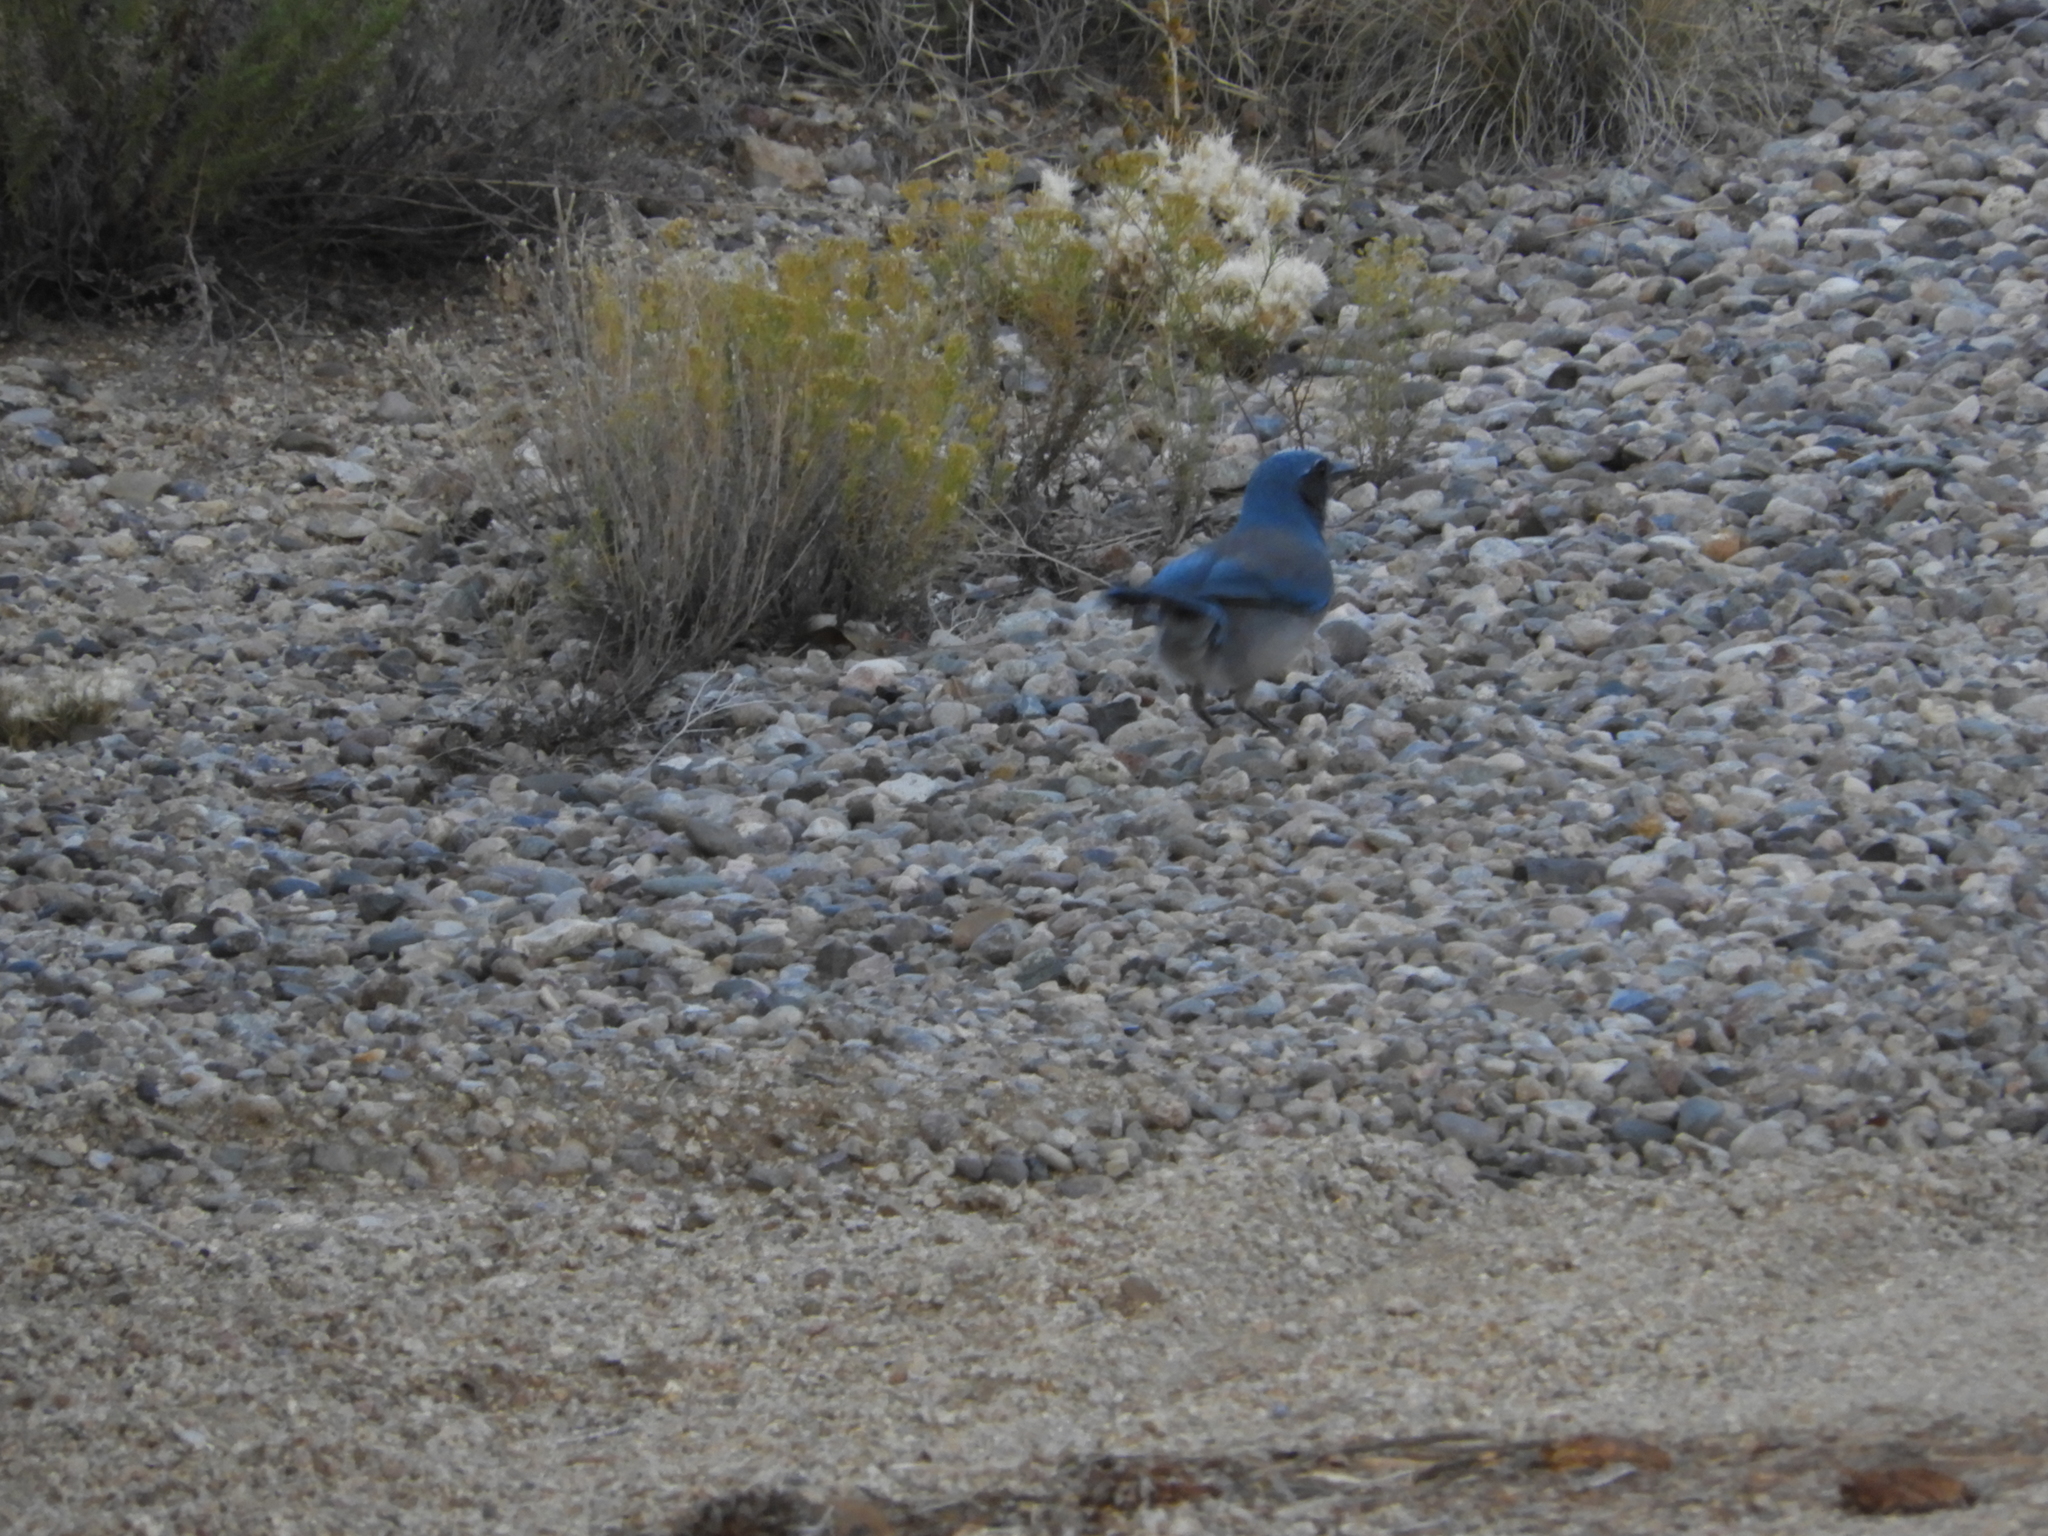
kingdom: Animalia
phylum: Chordata
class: Aves
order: Passeriformes
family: Corvidae
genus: Aphelocoma
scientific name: Aphelocoma woodhouseii
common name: Woodhouse's scrub-jay
